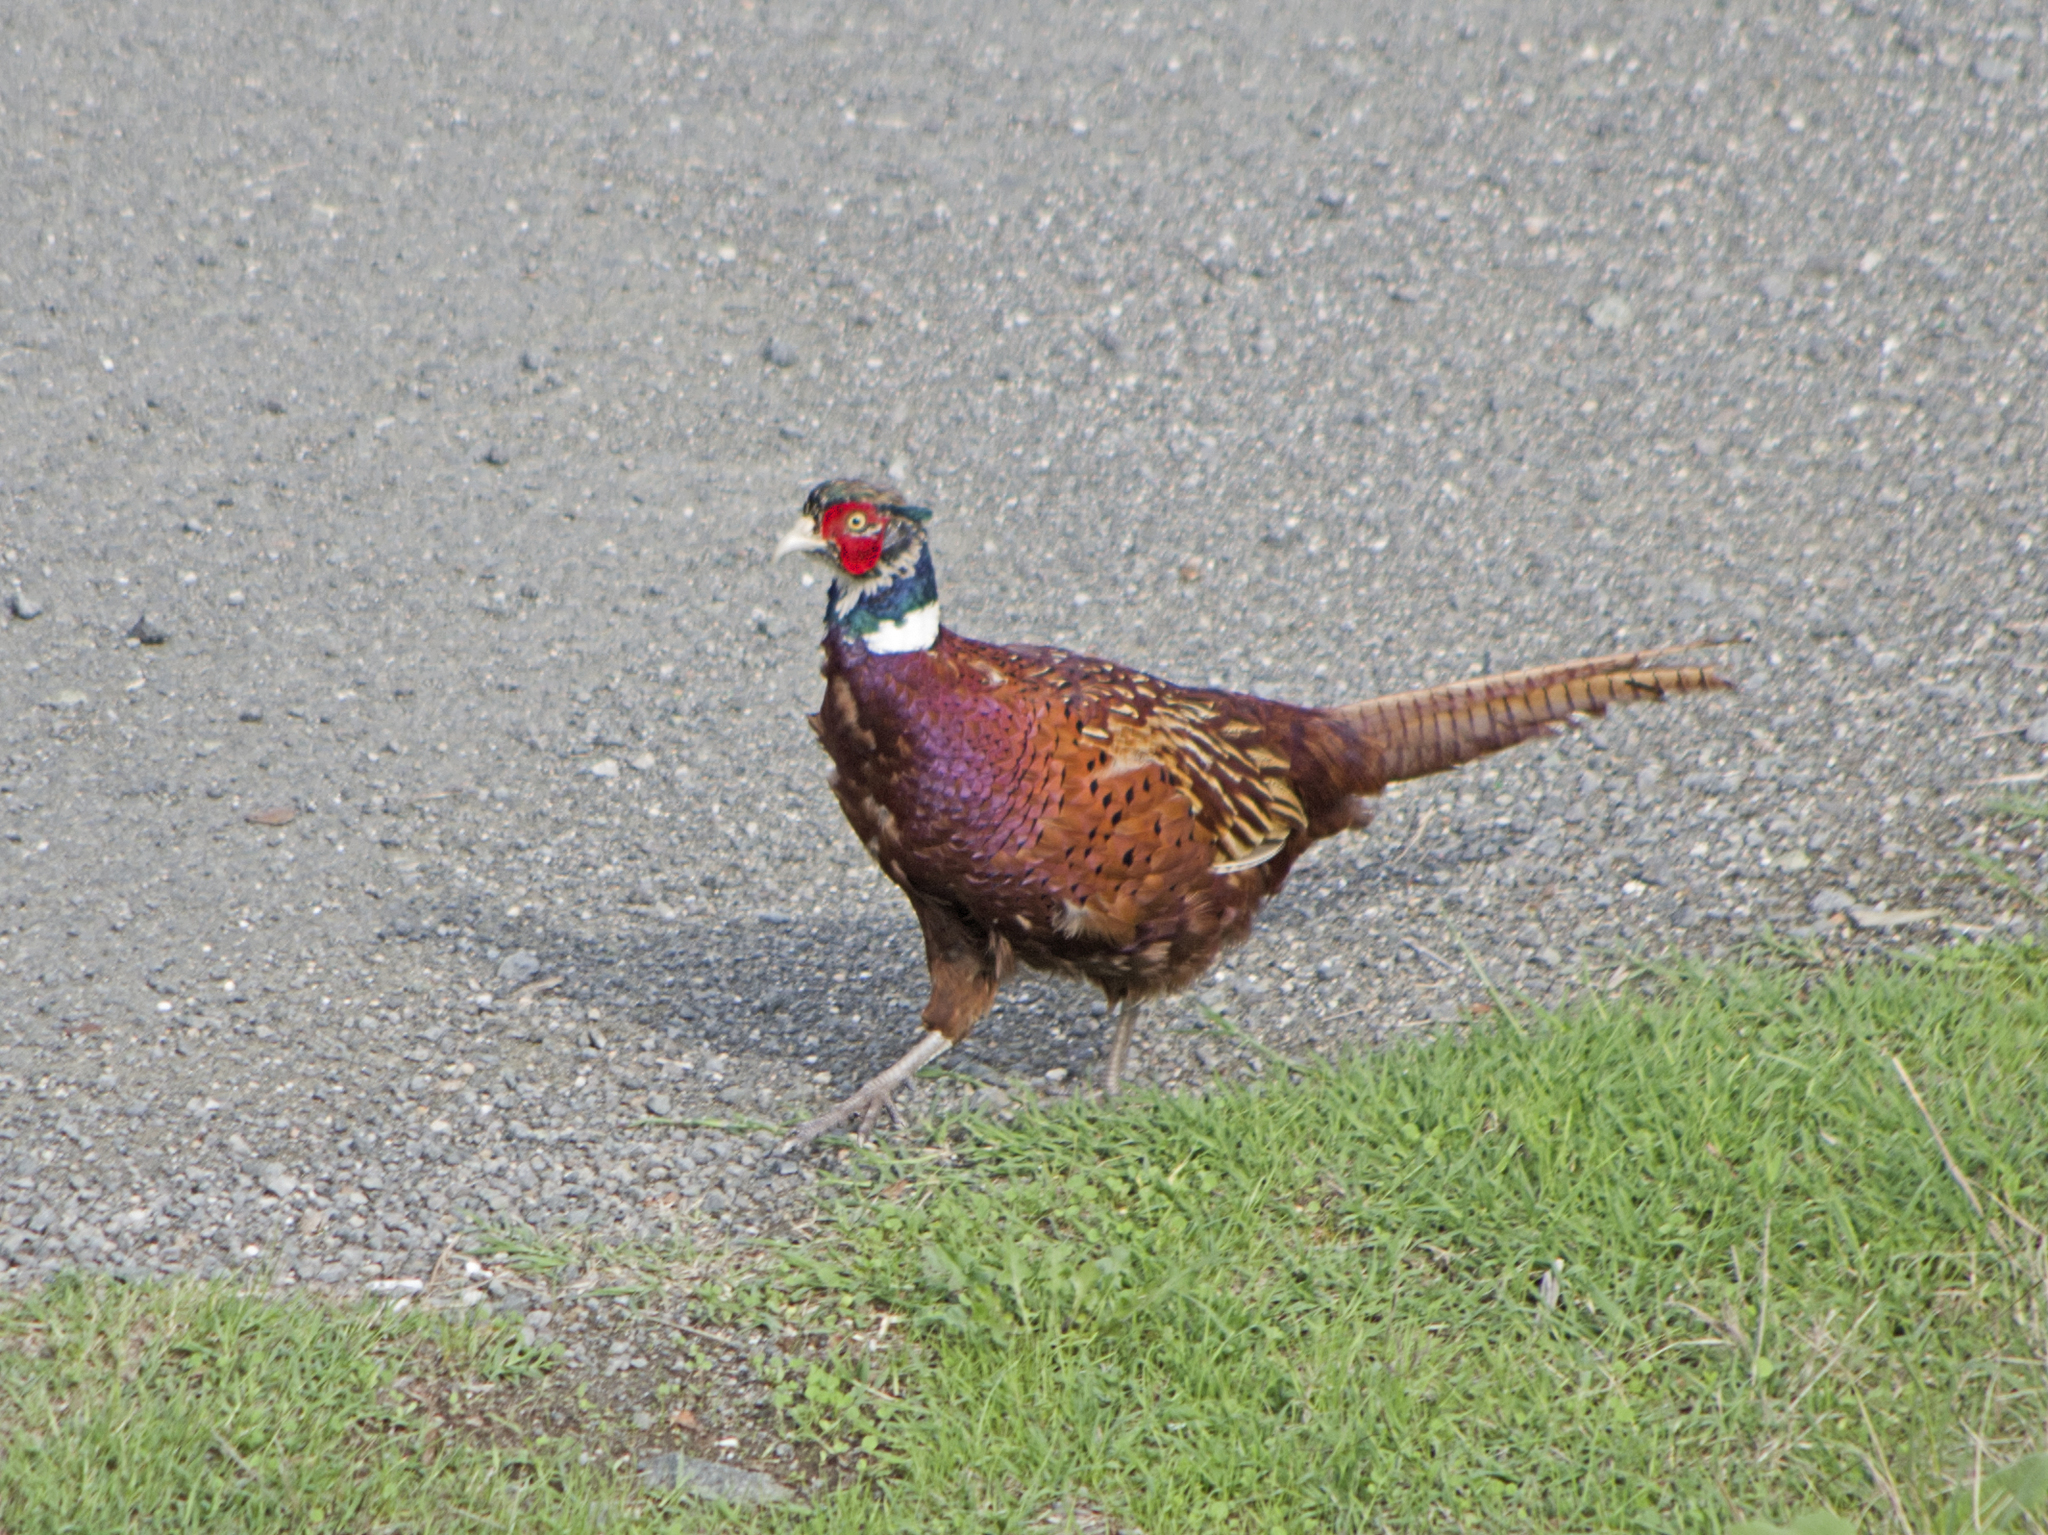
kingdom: Animalia
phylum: Chordata
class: Aves
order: Galliformes
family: Phasianidae
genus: Phasianus
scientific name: Phasianus colchicus
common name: Common pheasant
